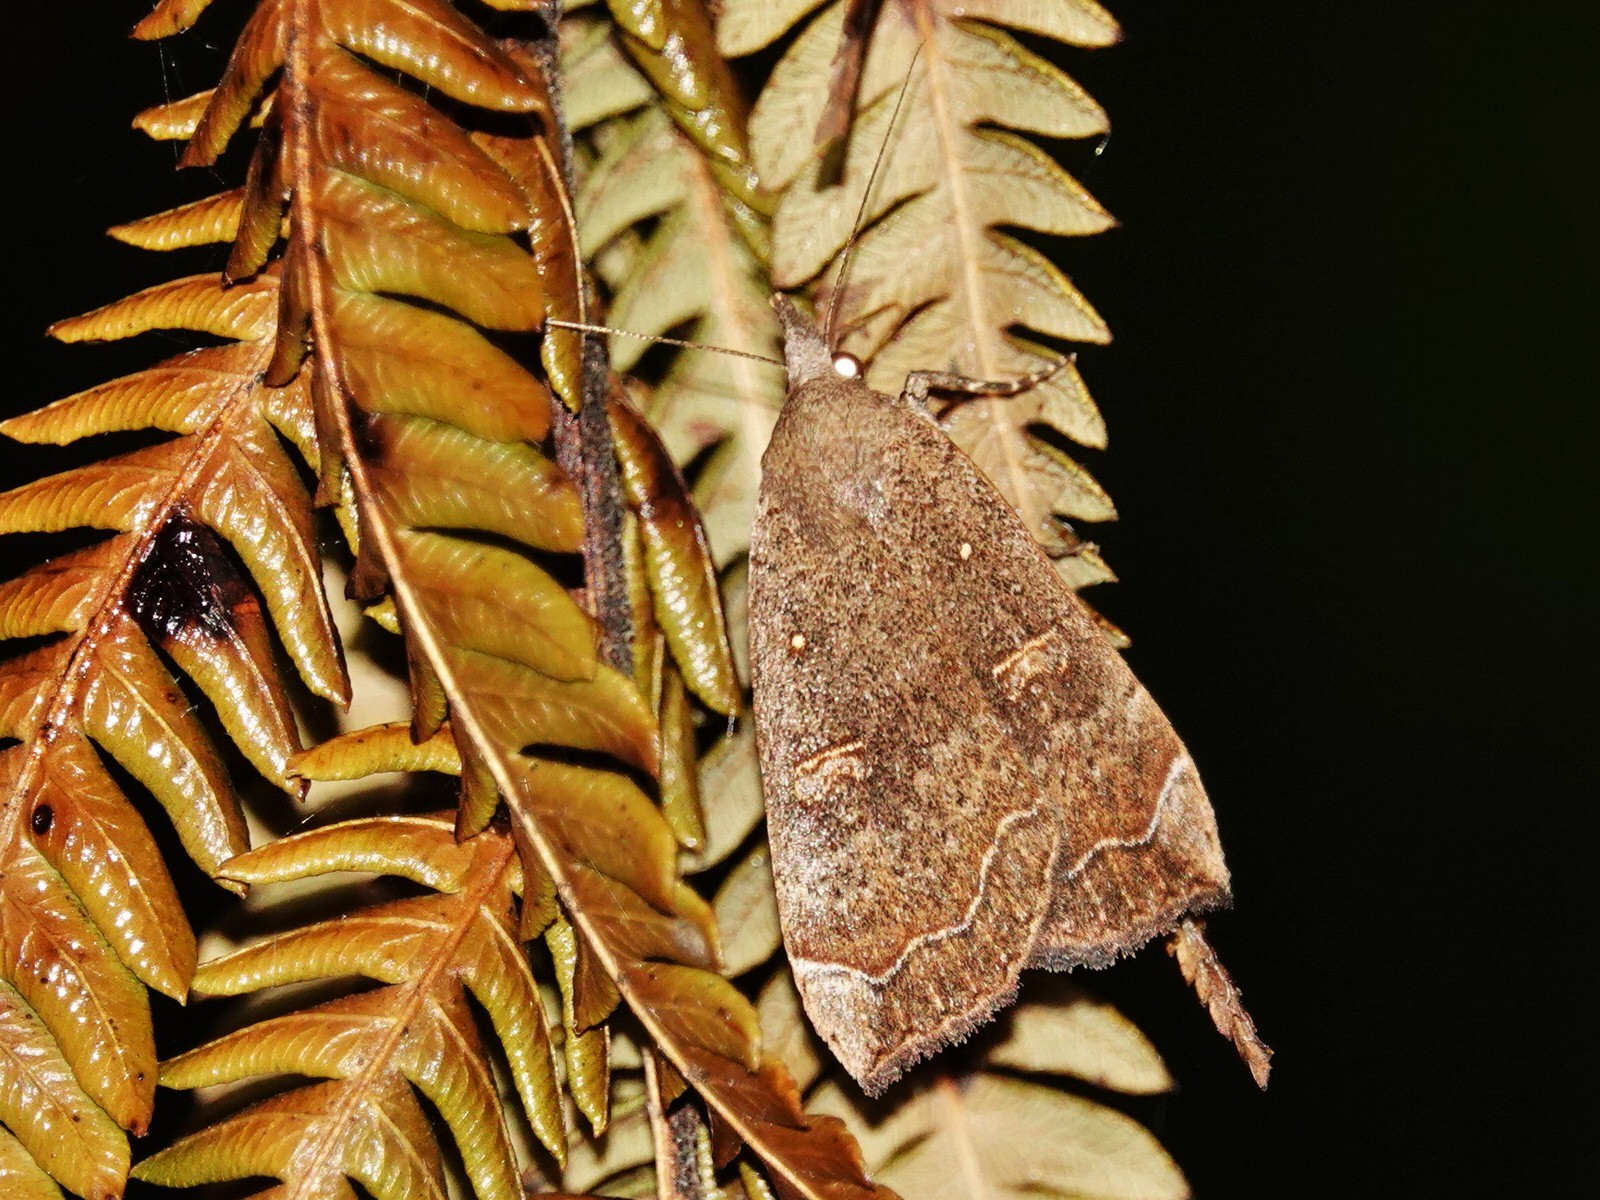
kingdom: Animalia
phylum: Arthropoda
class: Insecta
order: Lepidoptera
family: Erebidae
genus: Rhapsa
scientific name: Rhapsa scotosialis
